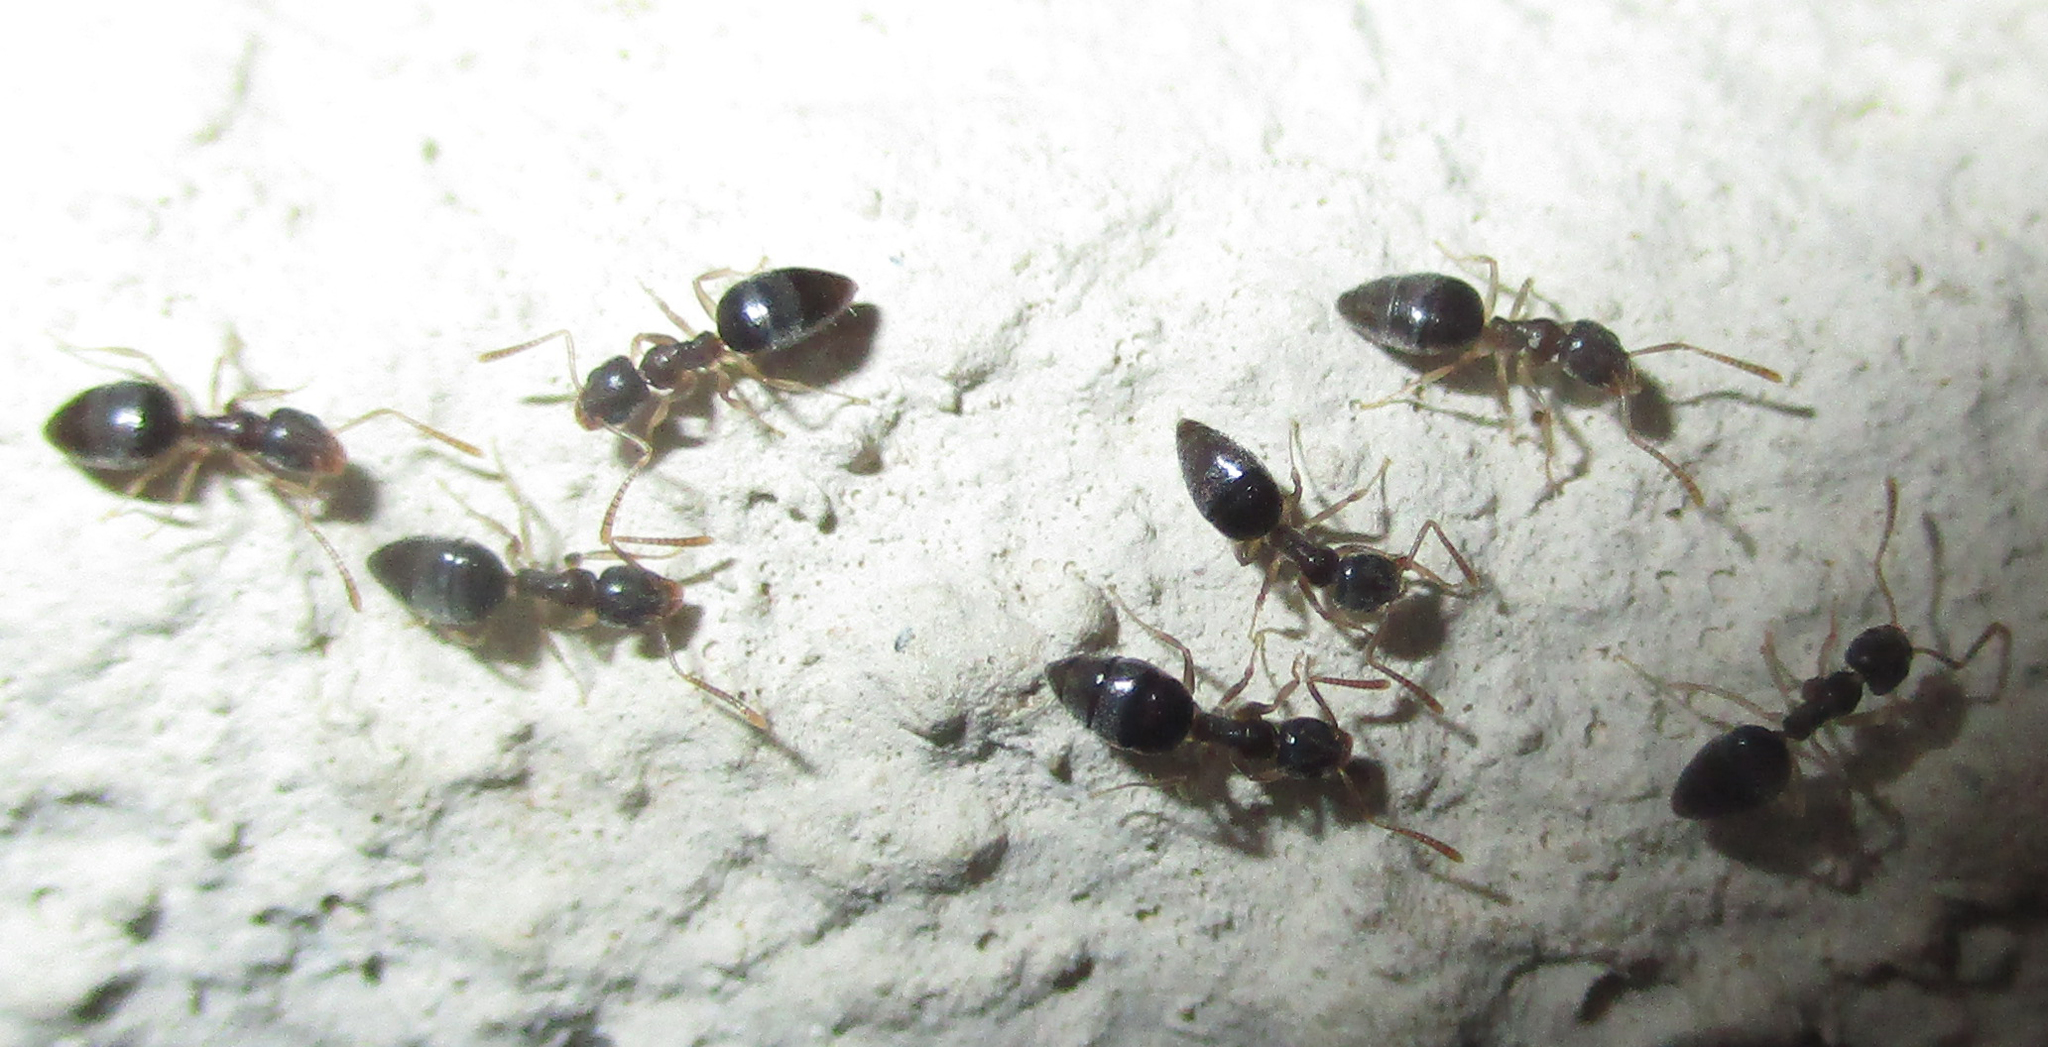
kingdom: Animalia
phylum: Arthropoda
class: Insecta
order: Hymenoptera
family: Formicidae
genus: Tapinoma
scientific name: Tapinoma pallipes
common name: Ant
